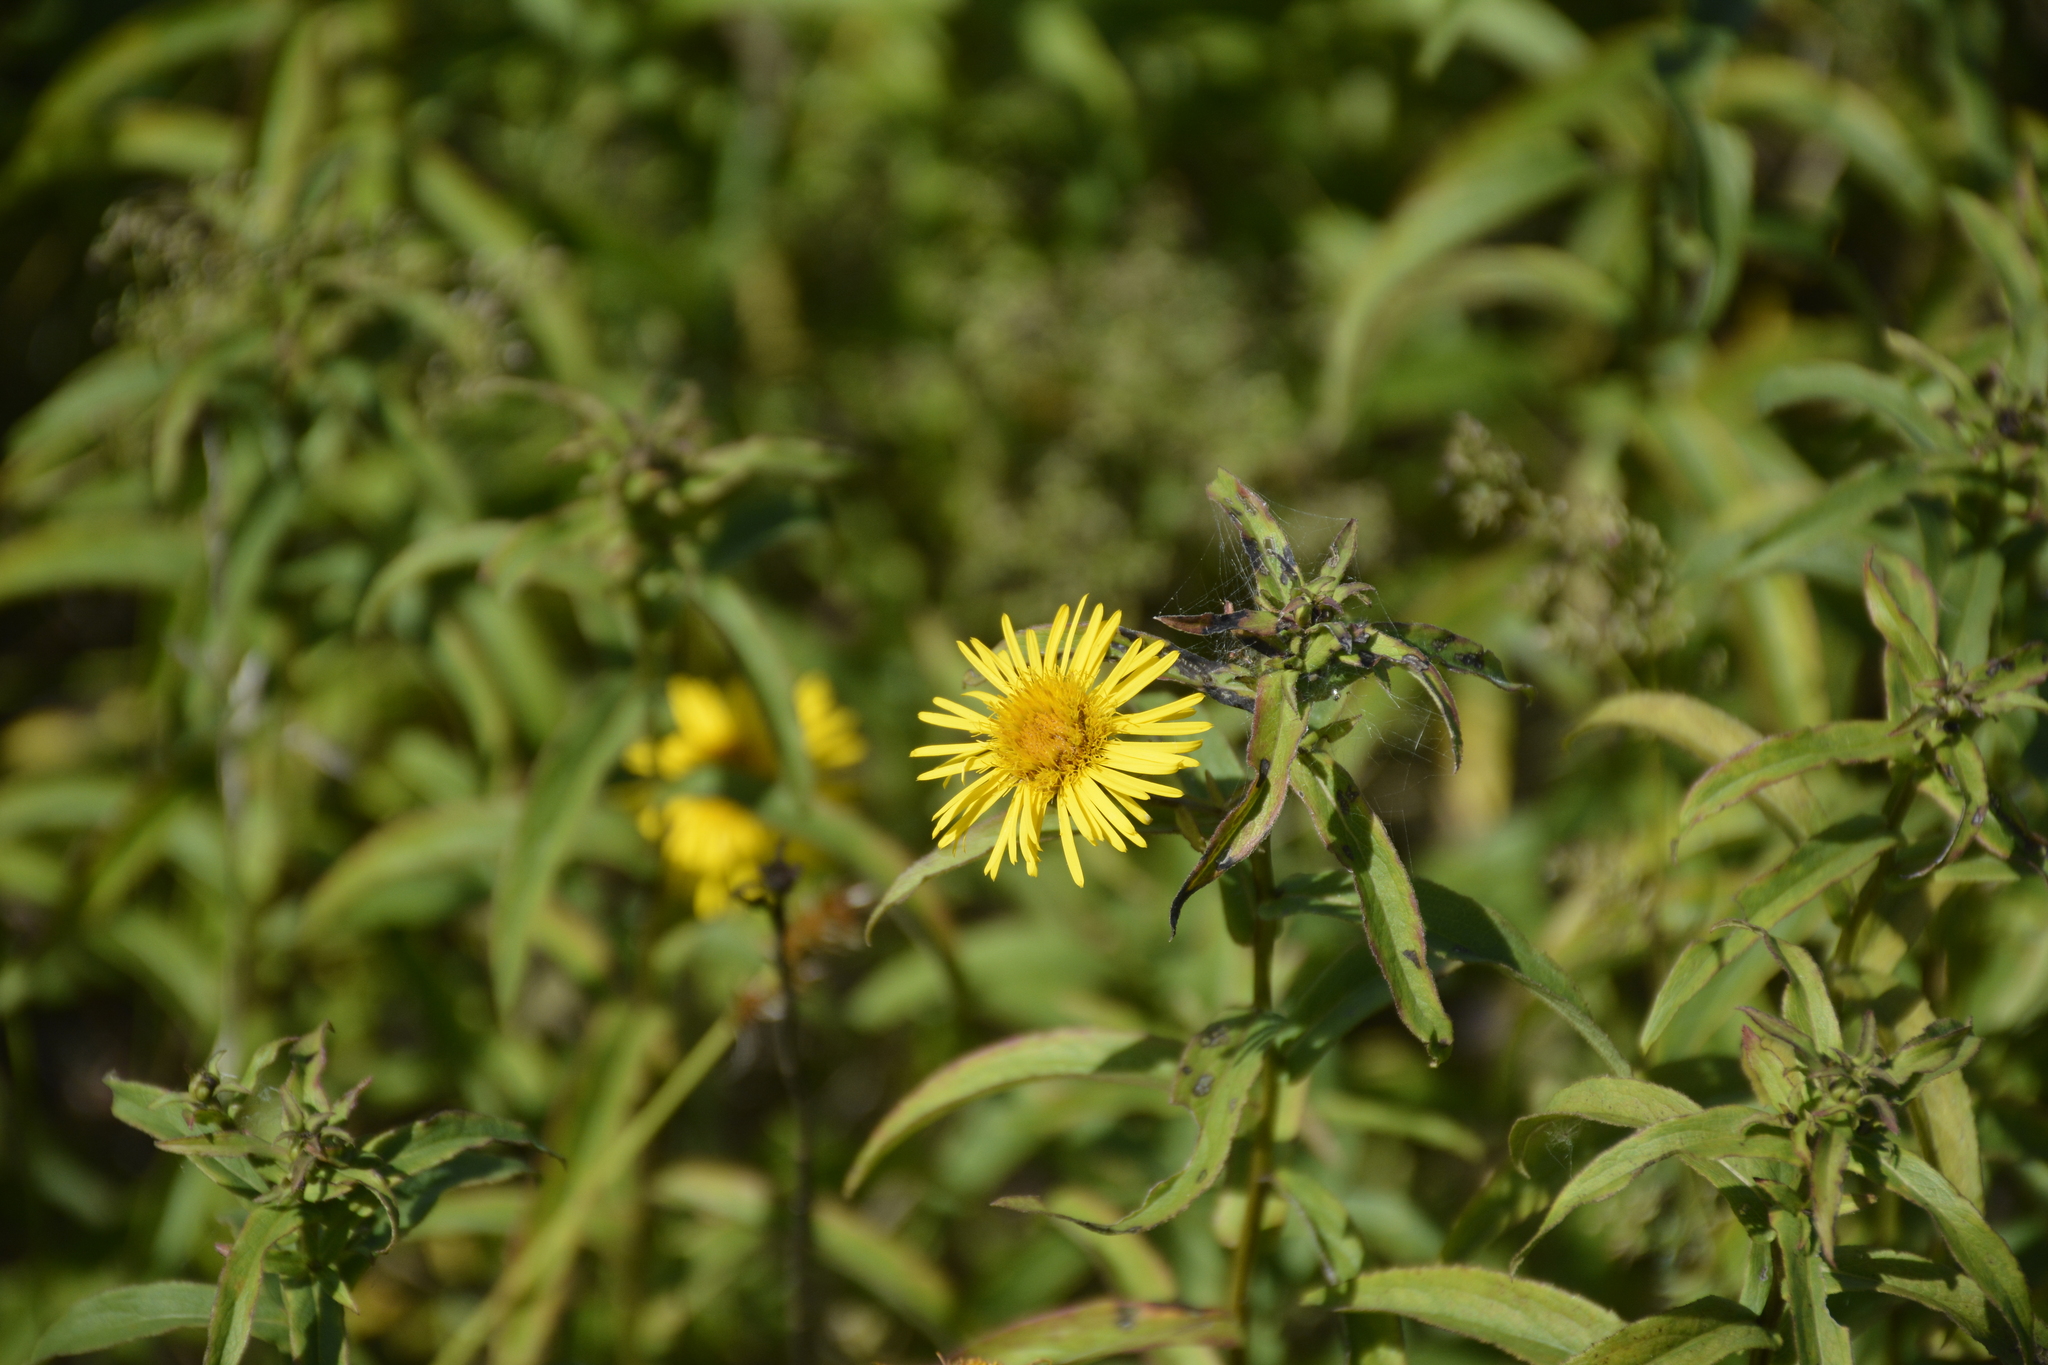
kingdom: Plantae
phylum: Tracheophyta
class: Magnoliopsida
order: Asterales
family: Asteraceae
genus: Pentanema
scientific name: Pentanema salicinum
